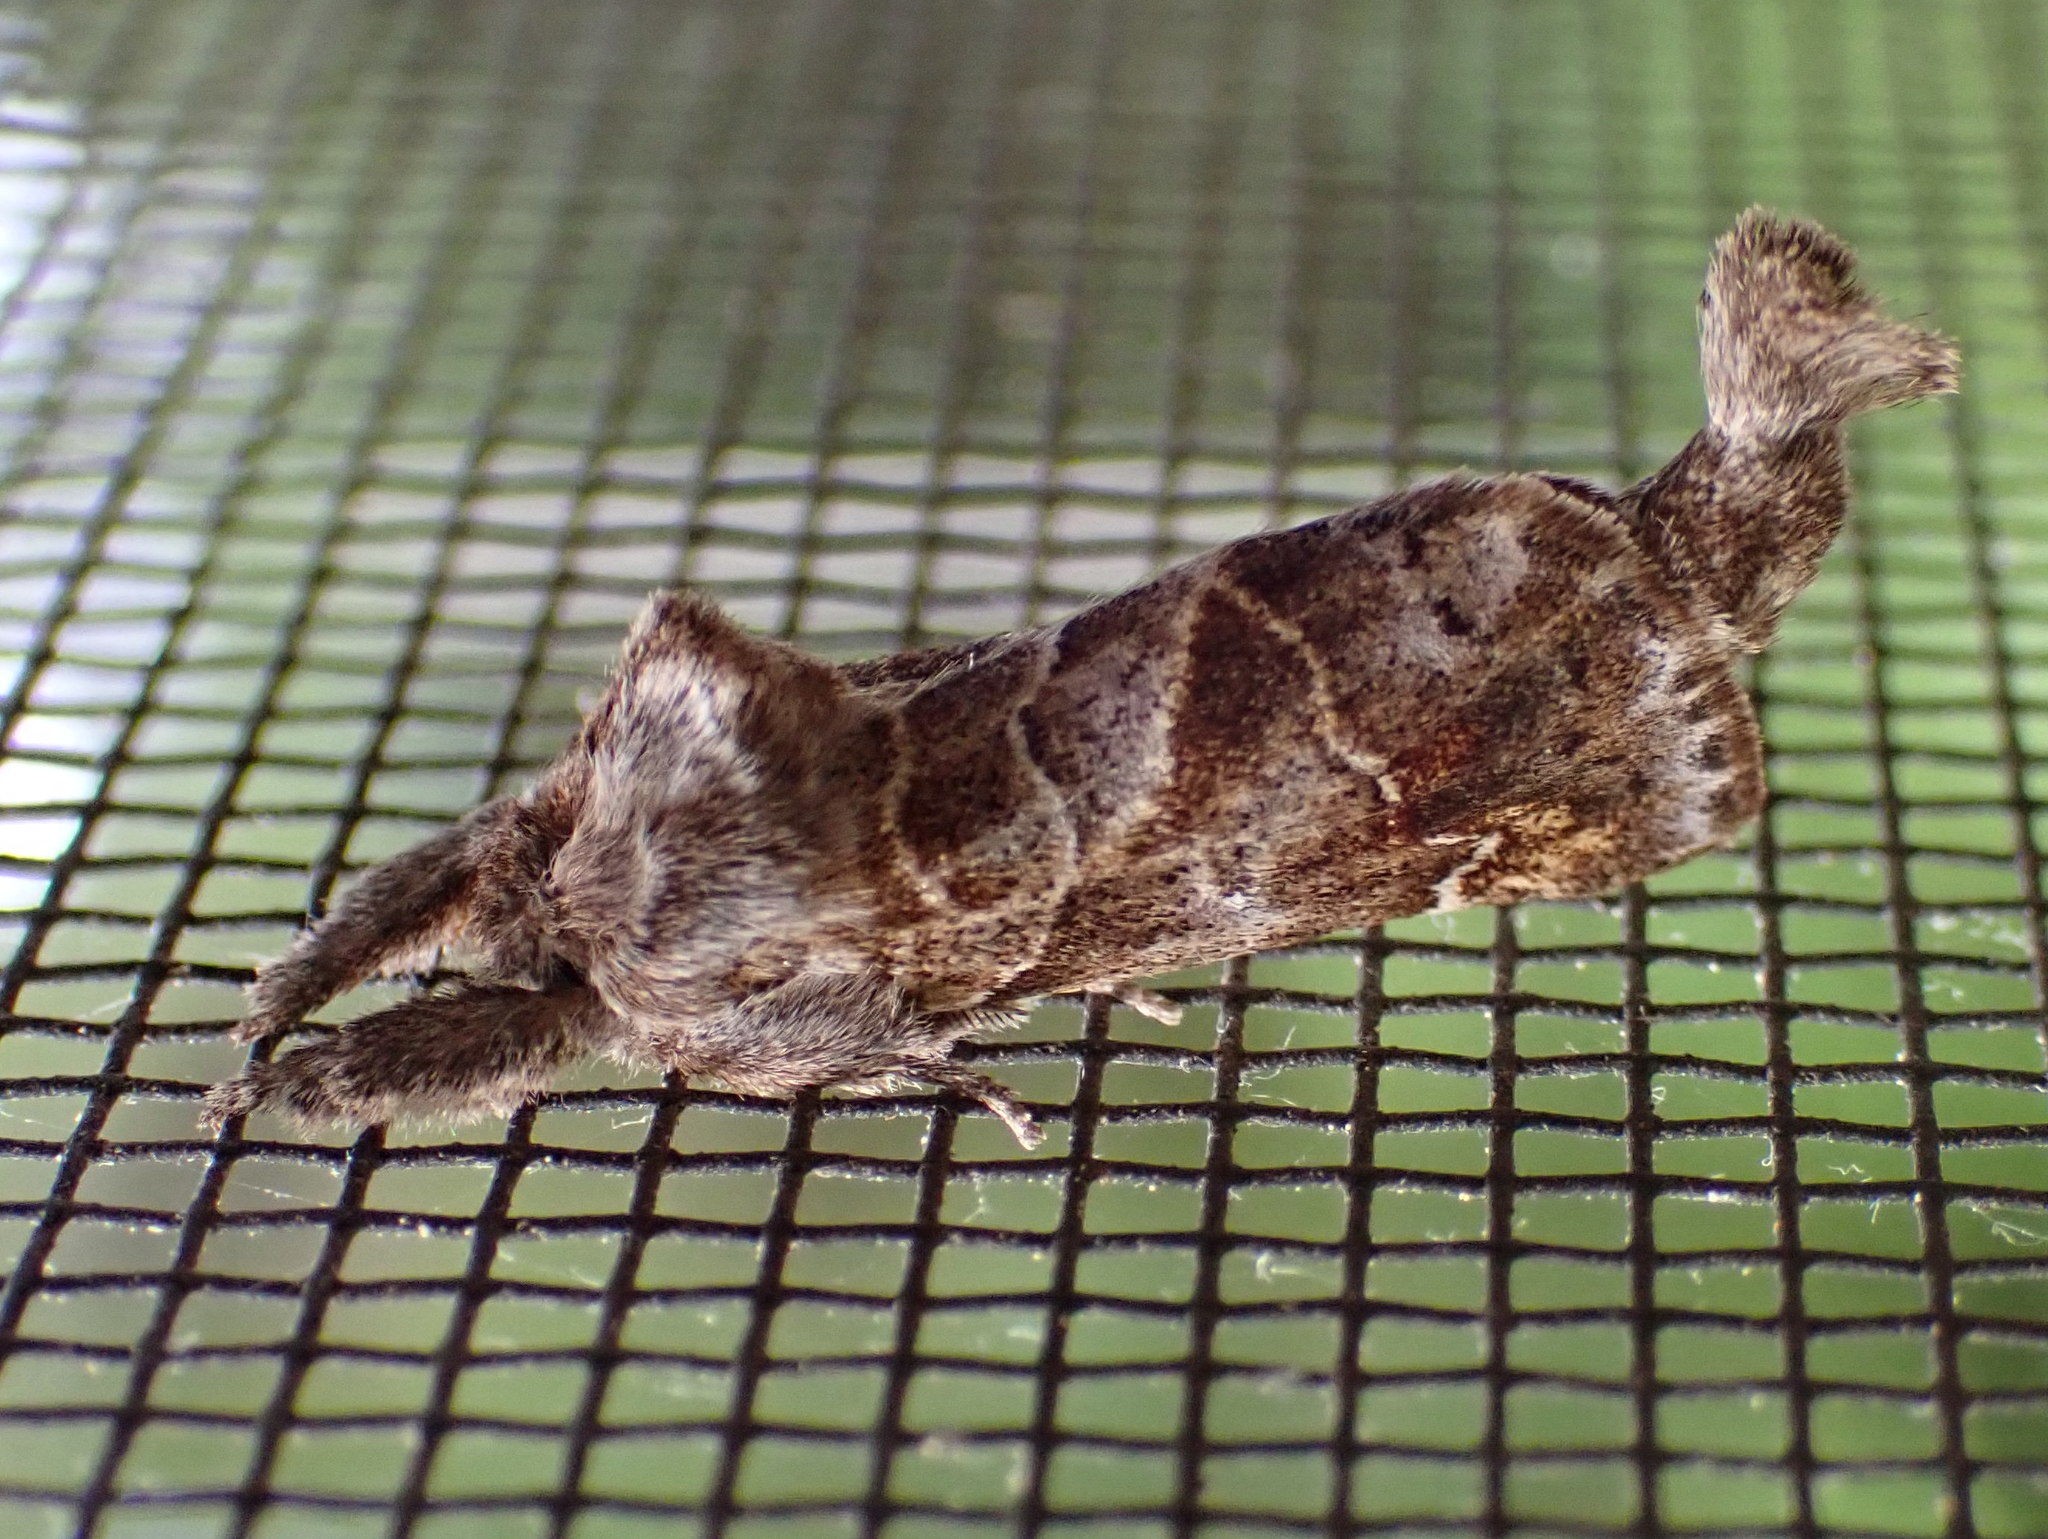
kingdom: Animalia
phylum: Arthropoda
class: Insecta
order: Lepidoptera
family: Notodontidae
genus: Clostera
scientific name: Clostera strigosa
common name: Striped chocolate-tip moth
